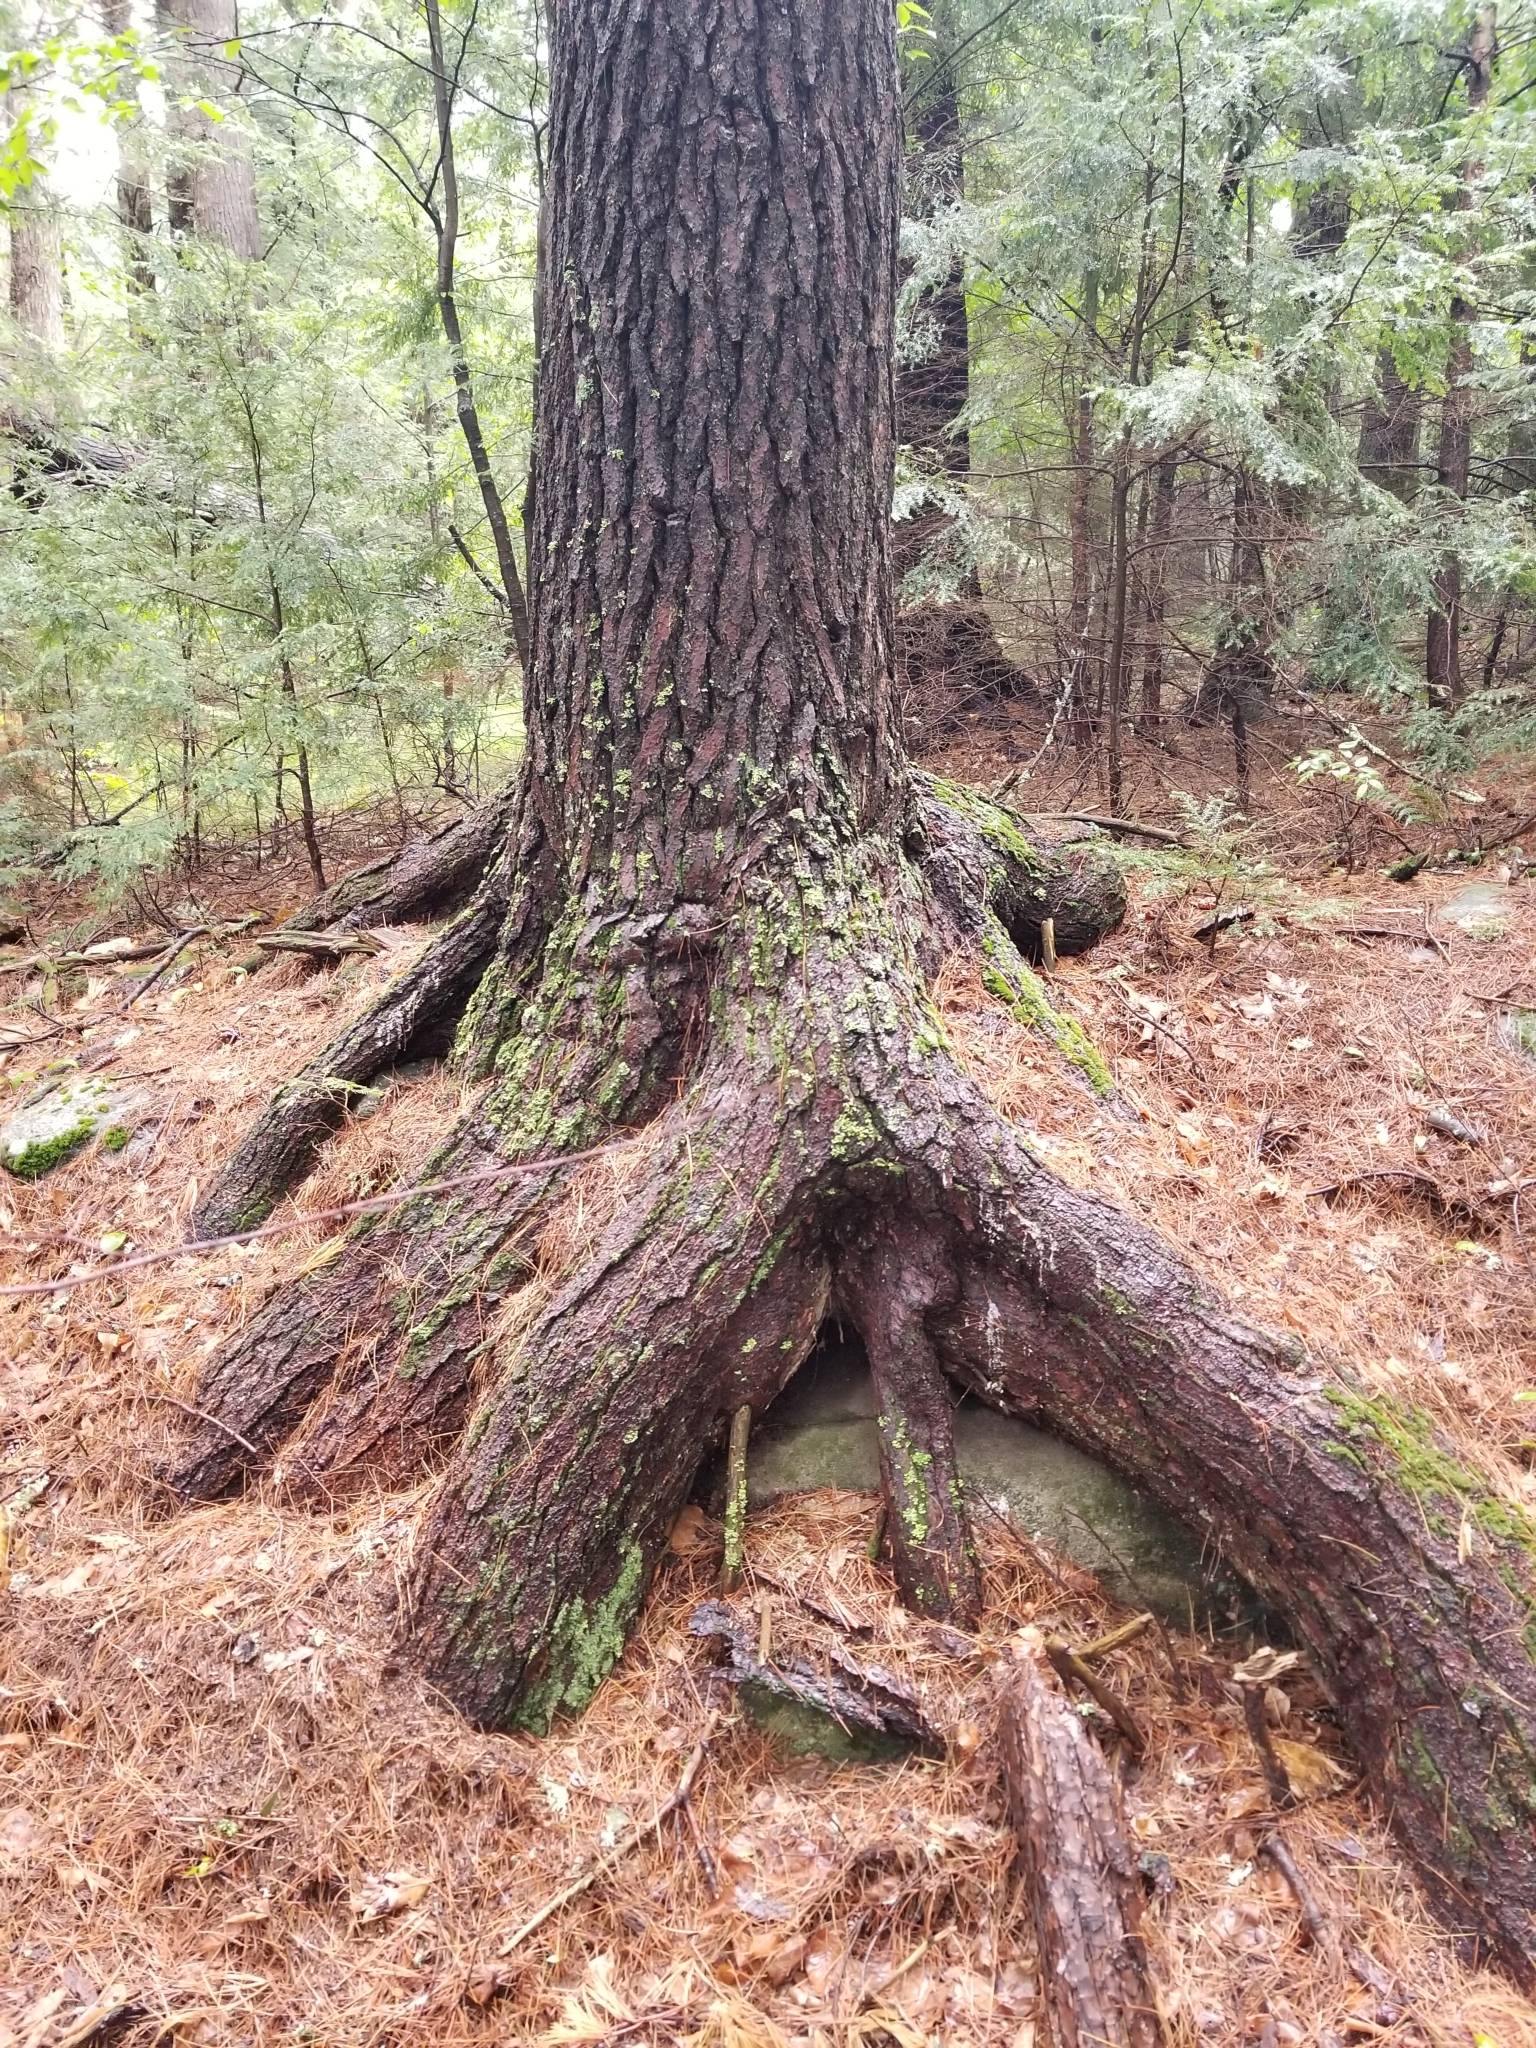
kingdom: Plantae
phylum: Tracheophyta
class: Pinopsida
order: Pinales
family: Pinaceae
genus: Pinus
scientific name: Pinus strobus
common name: Weymouth pine
